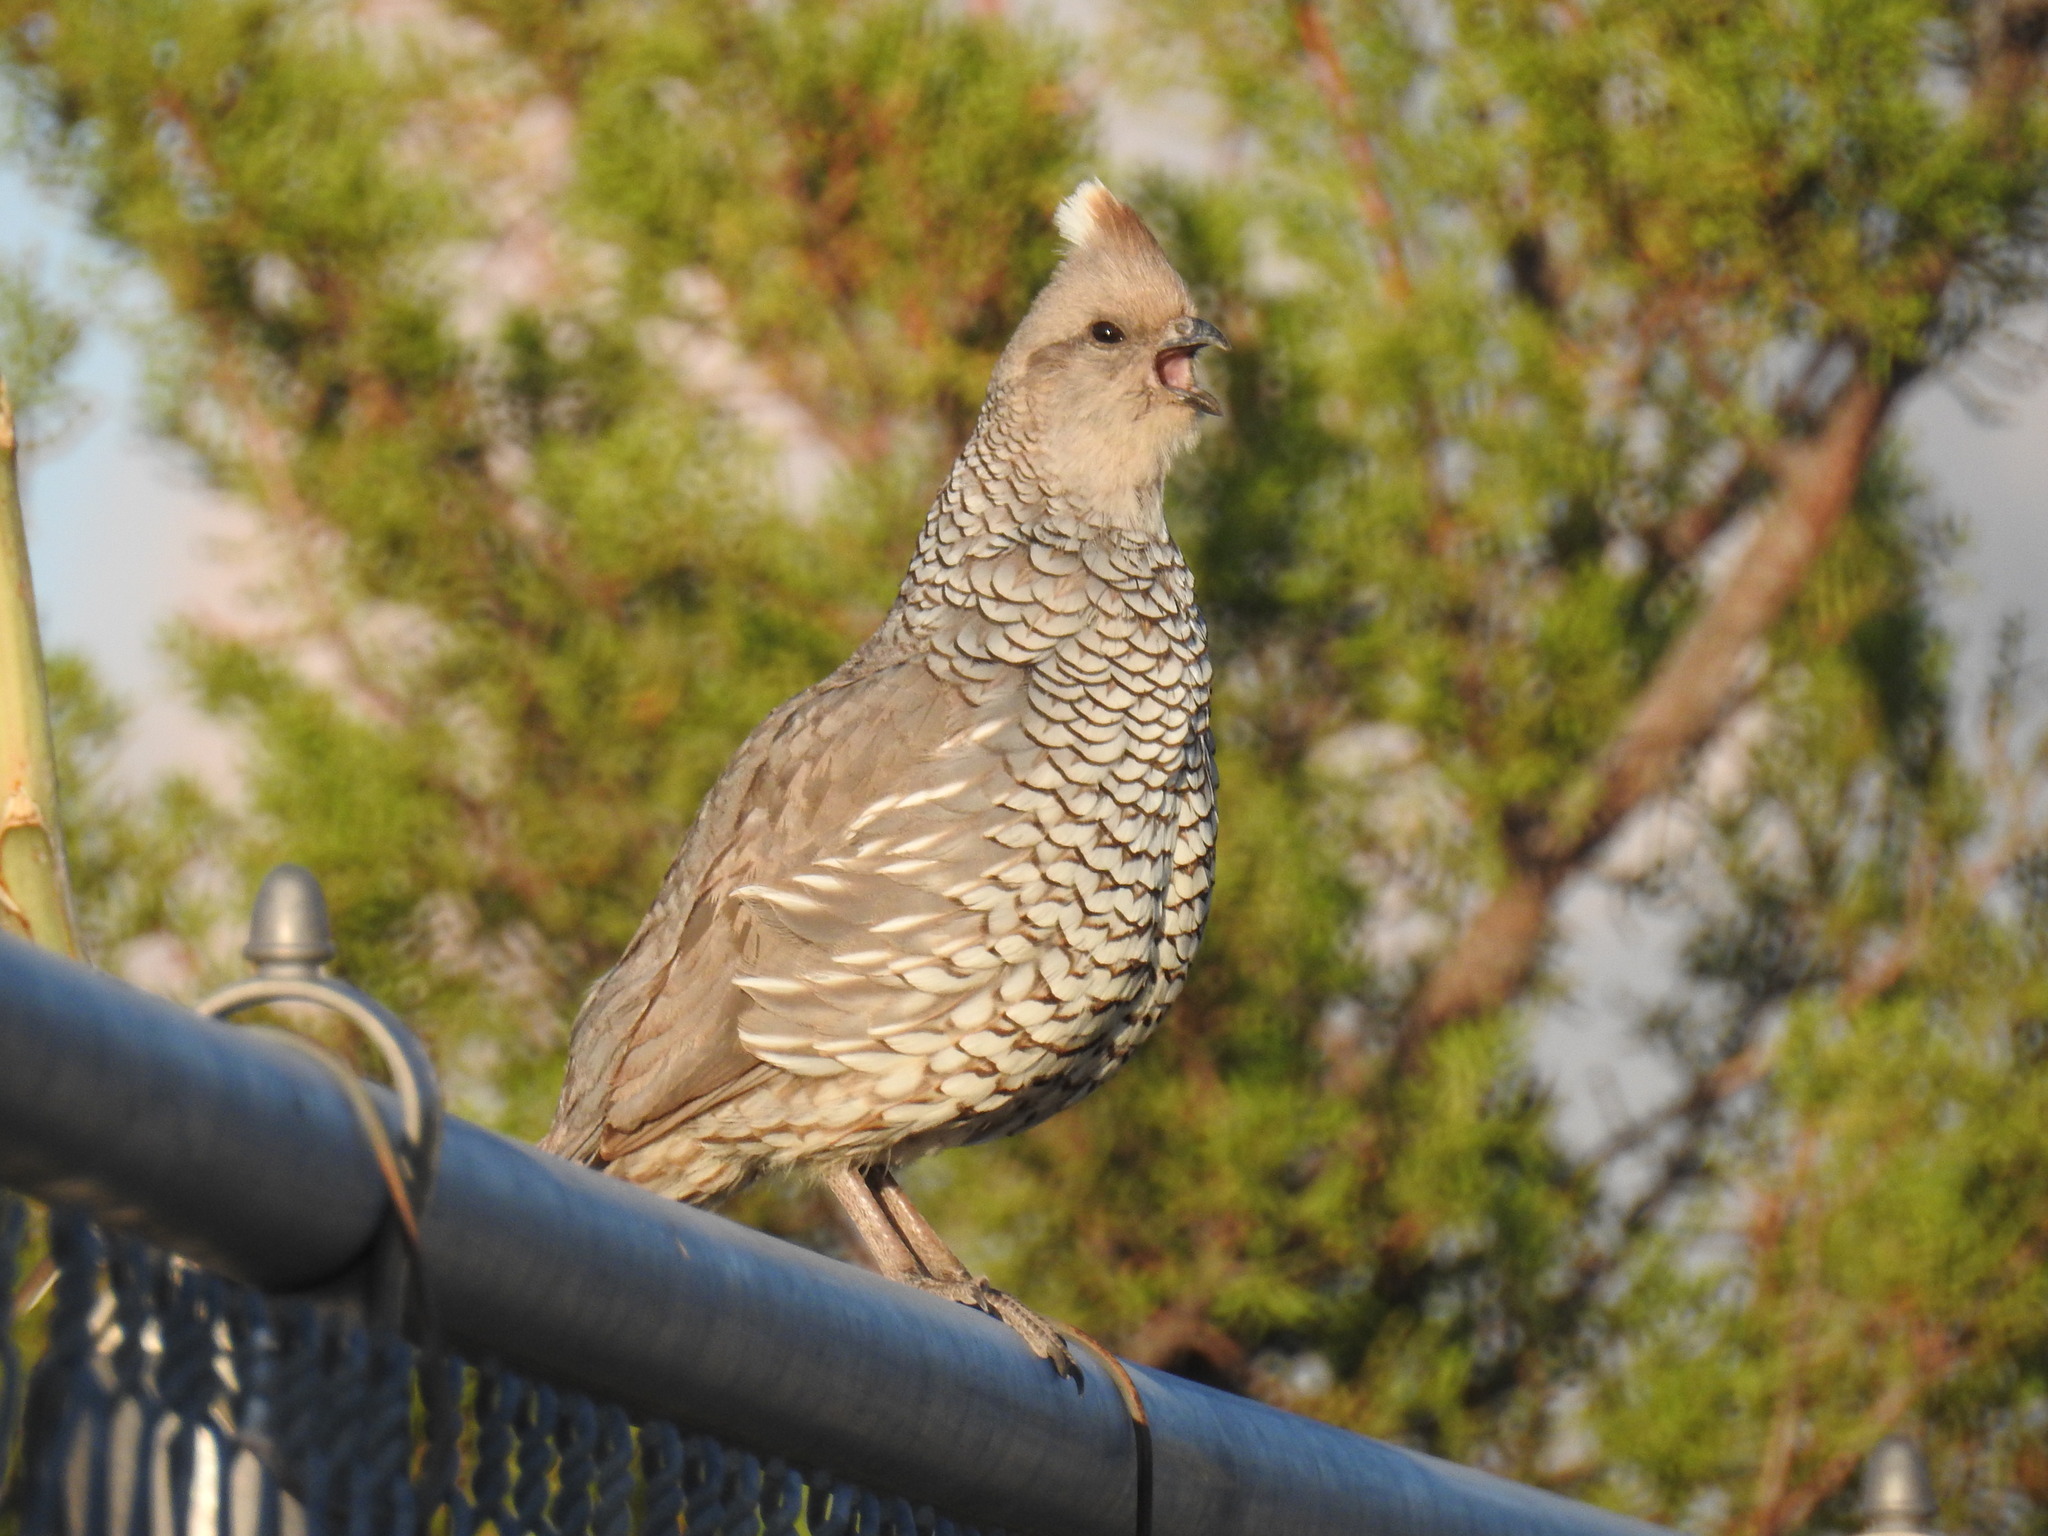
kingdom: Animalia
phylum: Chordata
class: Aves
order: Galliformes
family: Odontophoridae
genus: Callipepla
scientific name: Callipepla squamata
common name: Scaled quail
